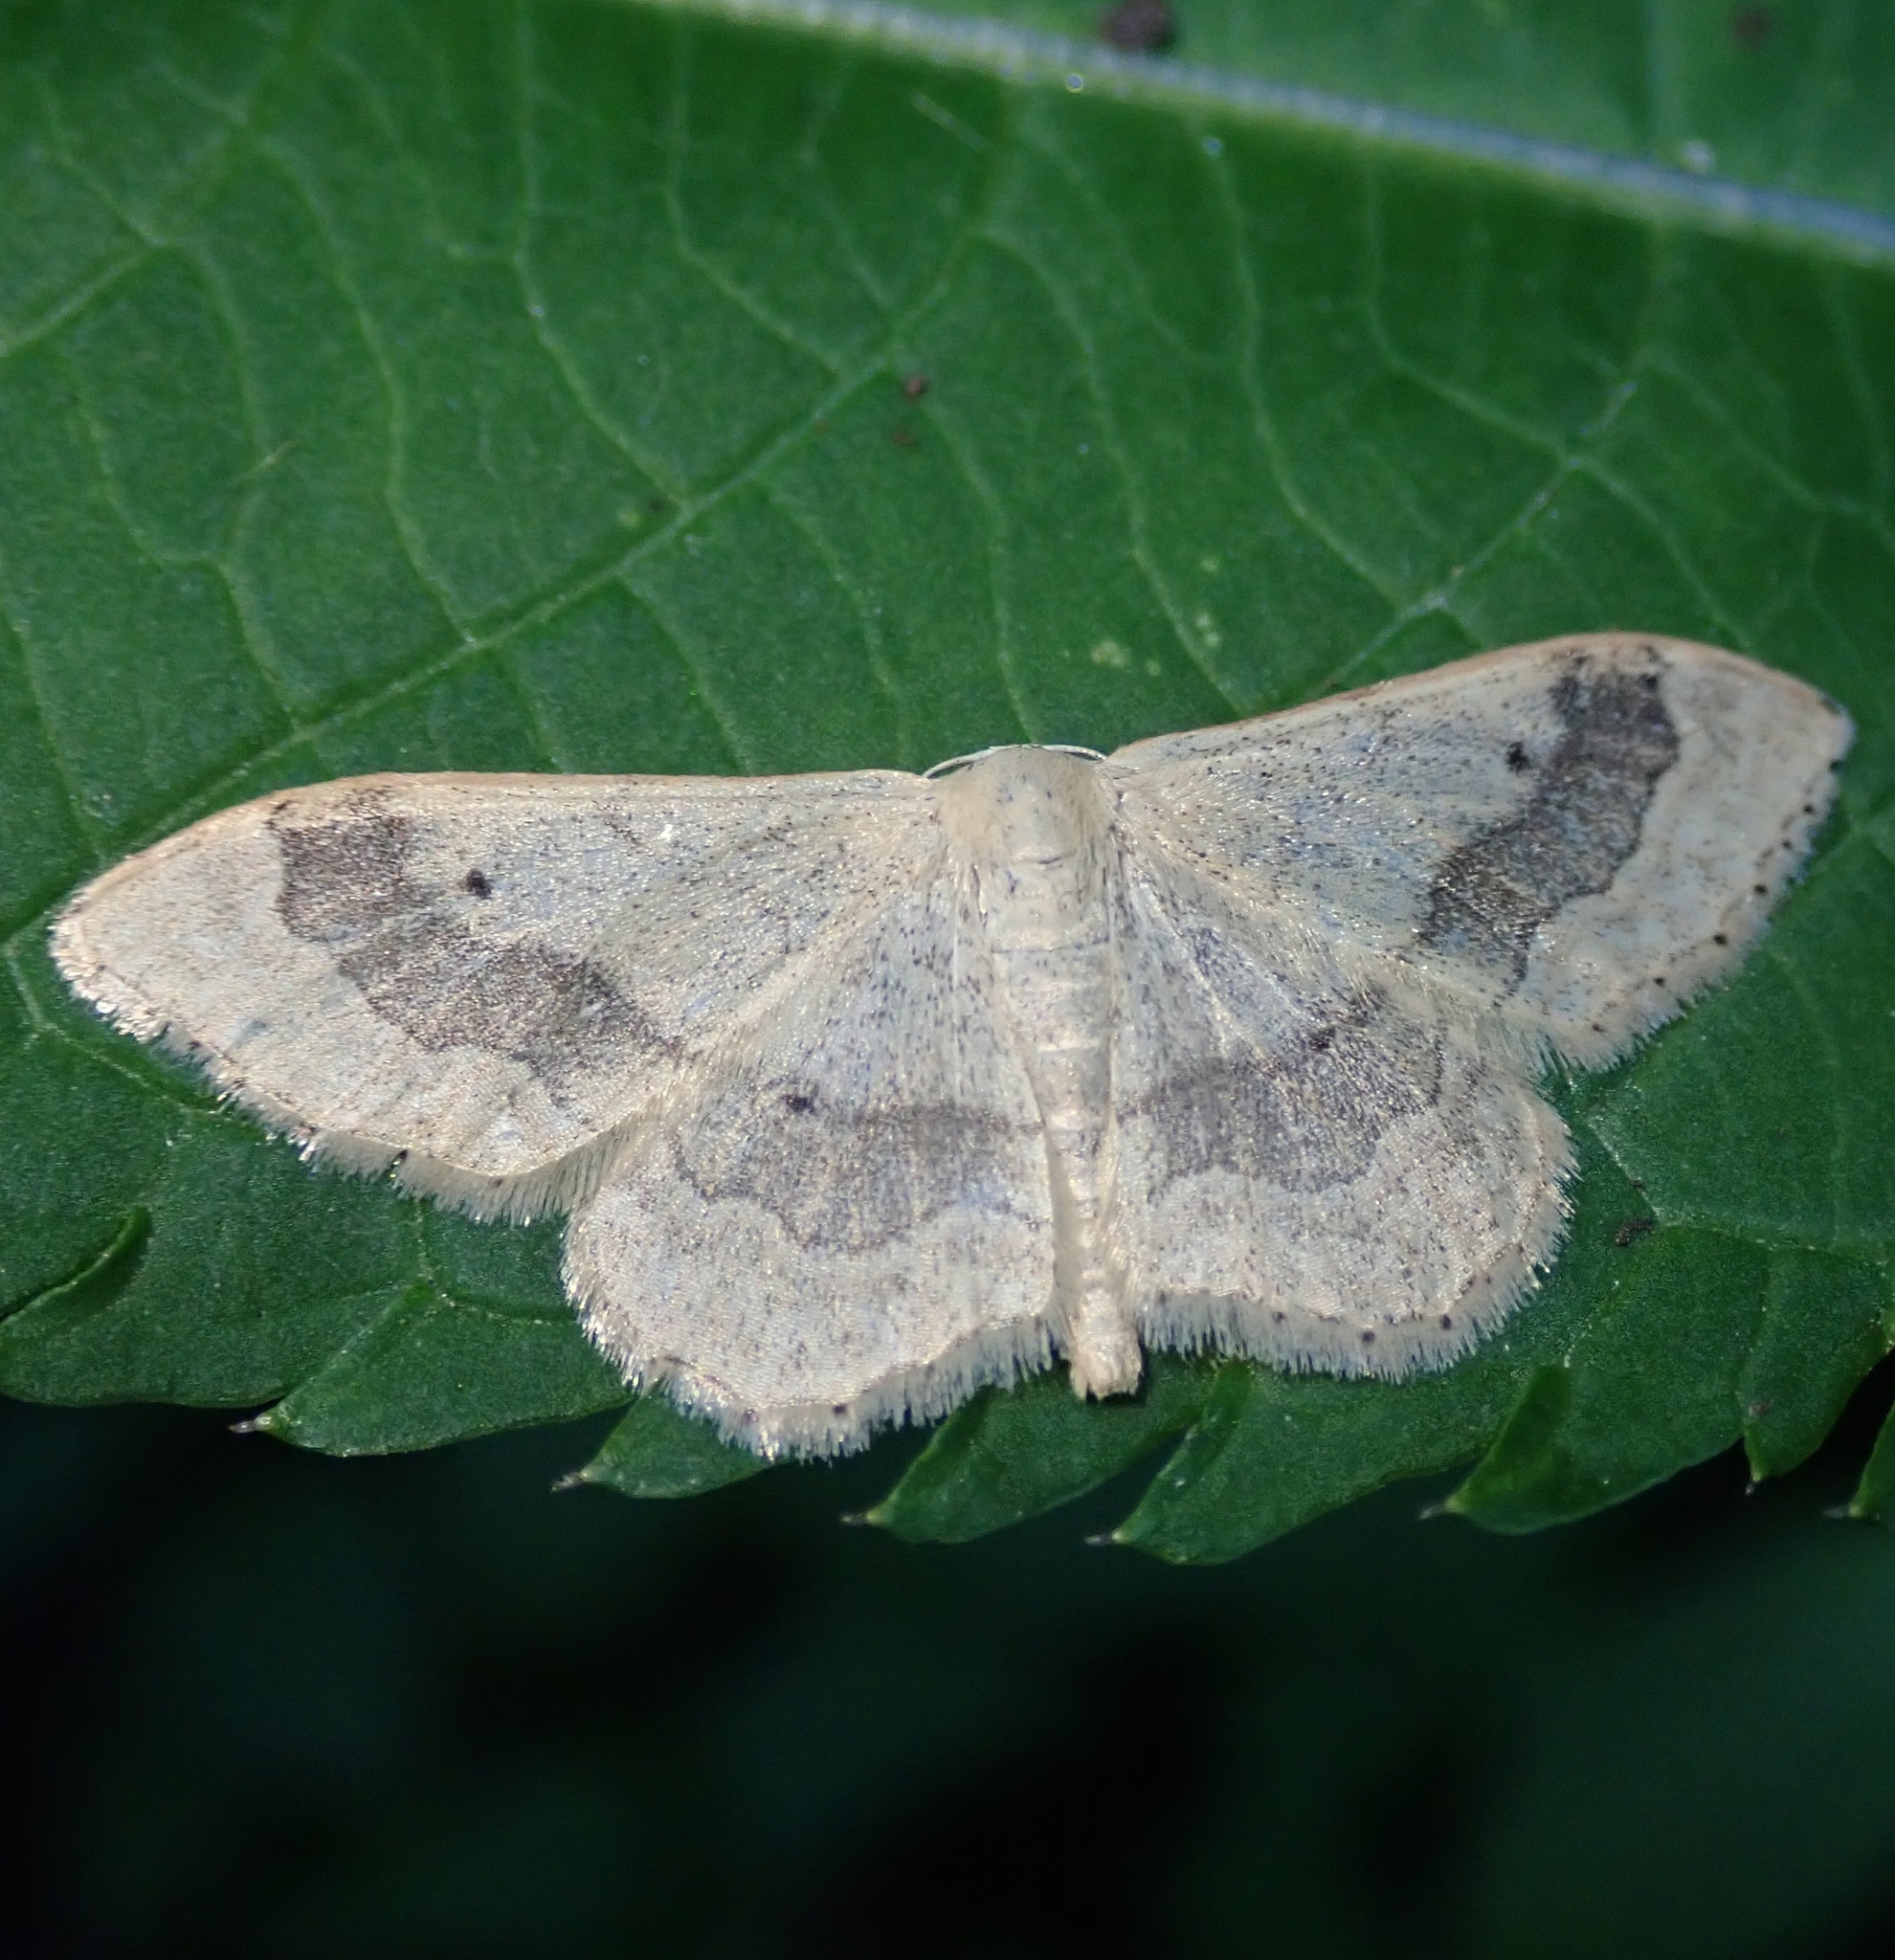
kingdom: Animalia
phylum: Arthropoda
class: Insecta
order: Lepidoptera
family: Geometridae
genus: Idaea
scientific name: Idaea aversata
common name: Riband wave
